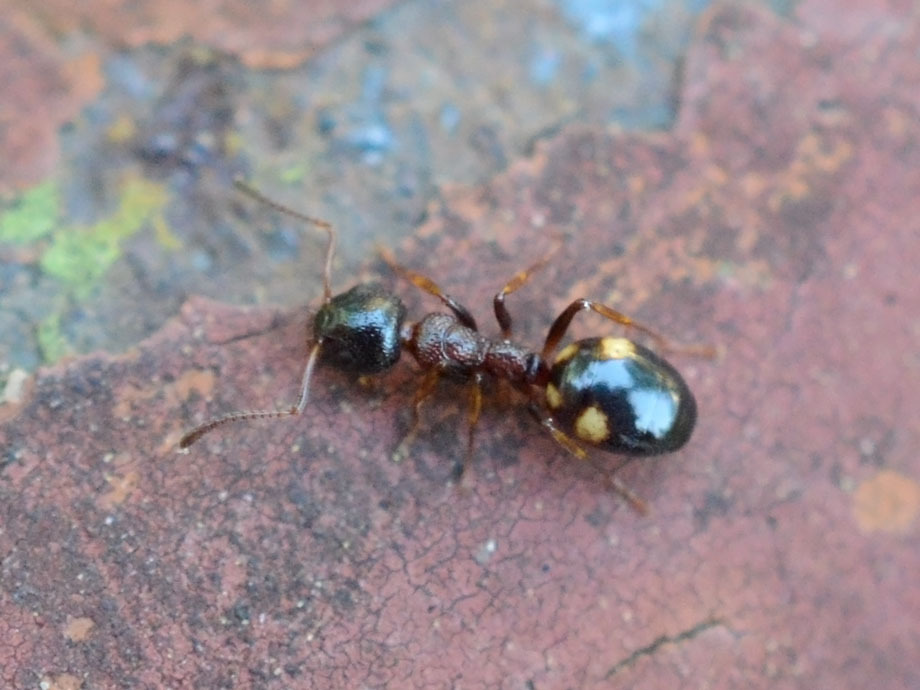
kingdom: Animalia
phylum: Arthropoda
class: Insecta
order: Hymenoptera
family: Formicidae
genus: Dolichoderus
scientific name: Dolichoderus quadripunctatus
